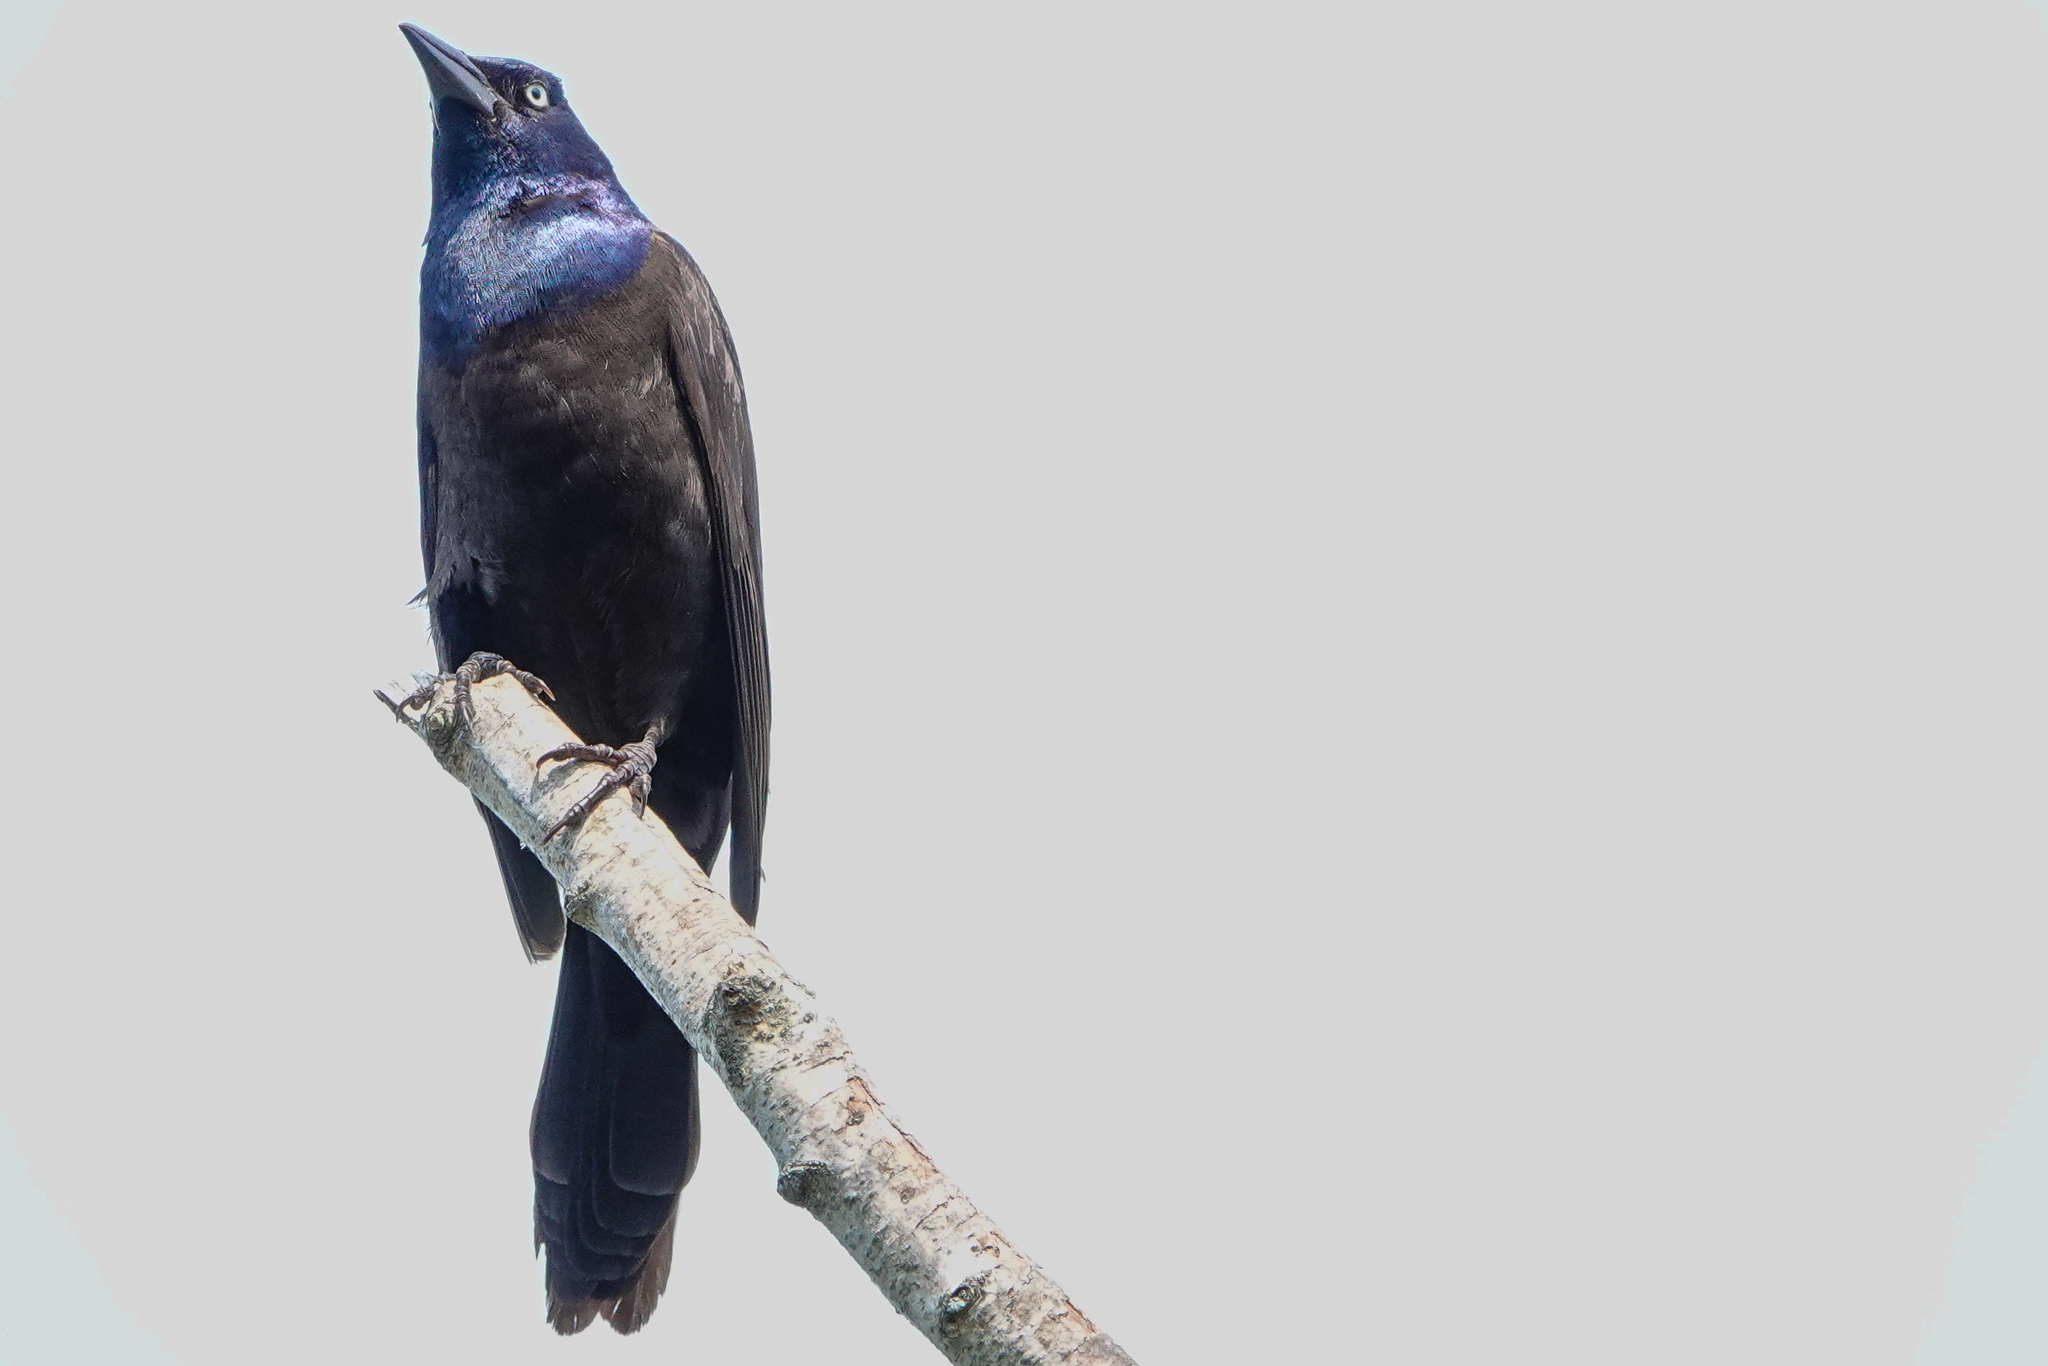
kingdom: Animalia
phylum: Chordata
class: Aves
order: Passeriformes
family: Icteridae
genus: Quiscalus
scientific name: Quiscalus quiscula
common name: Common grackle
